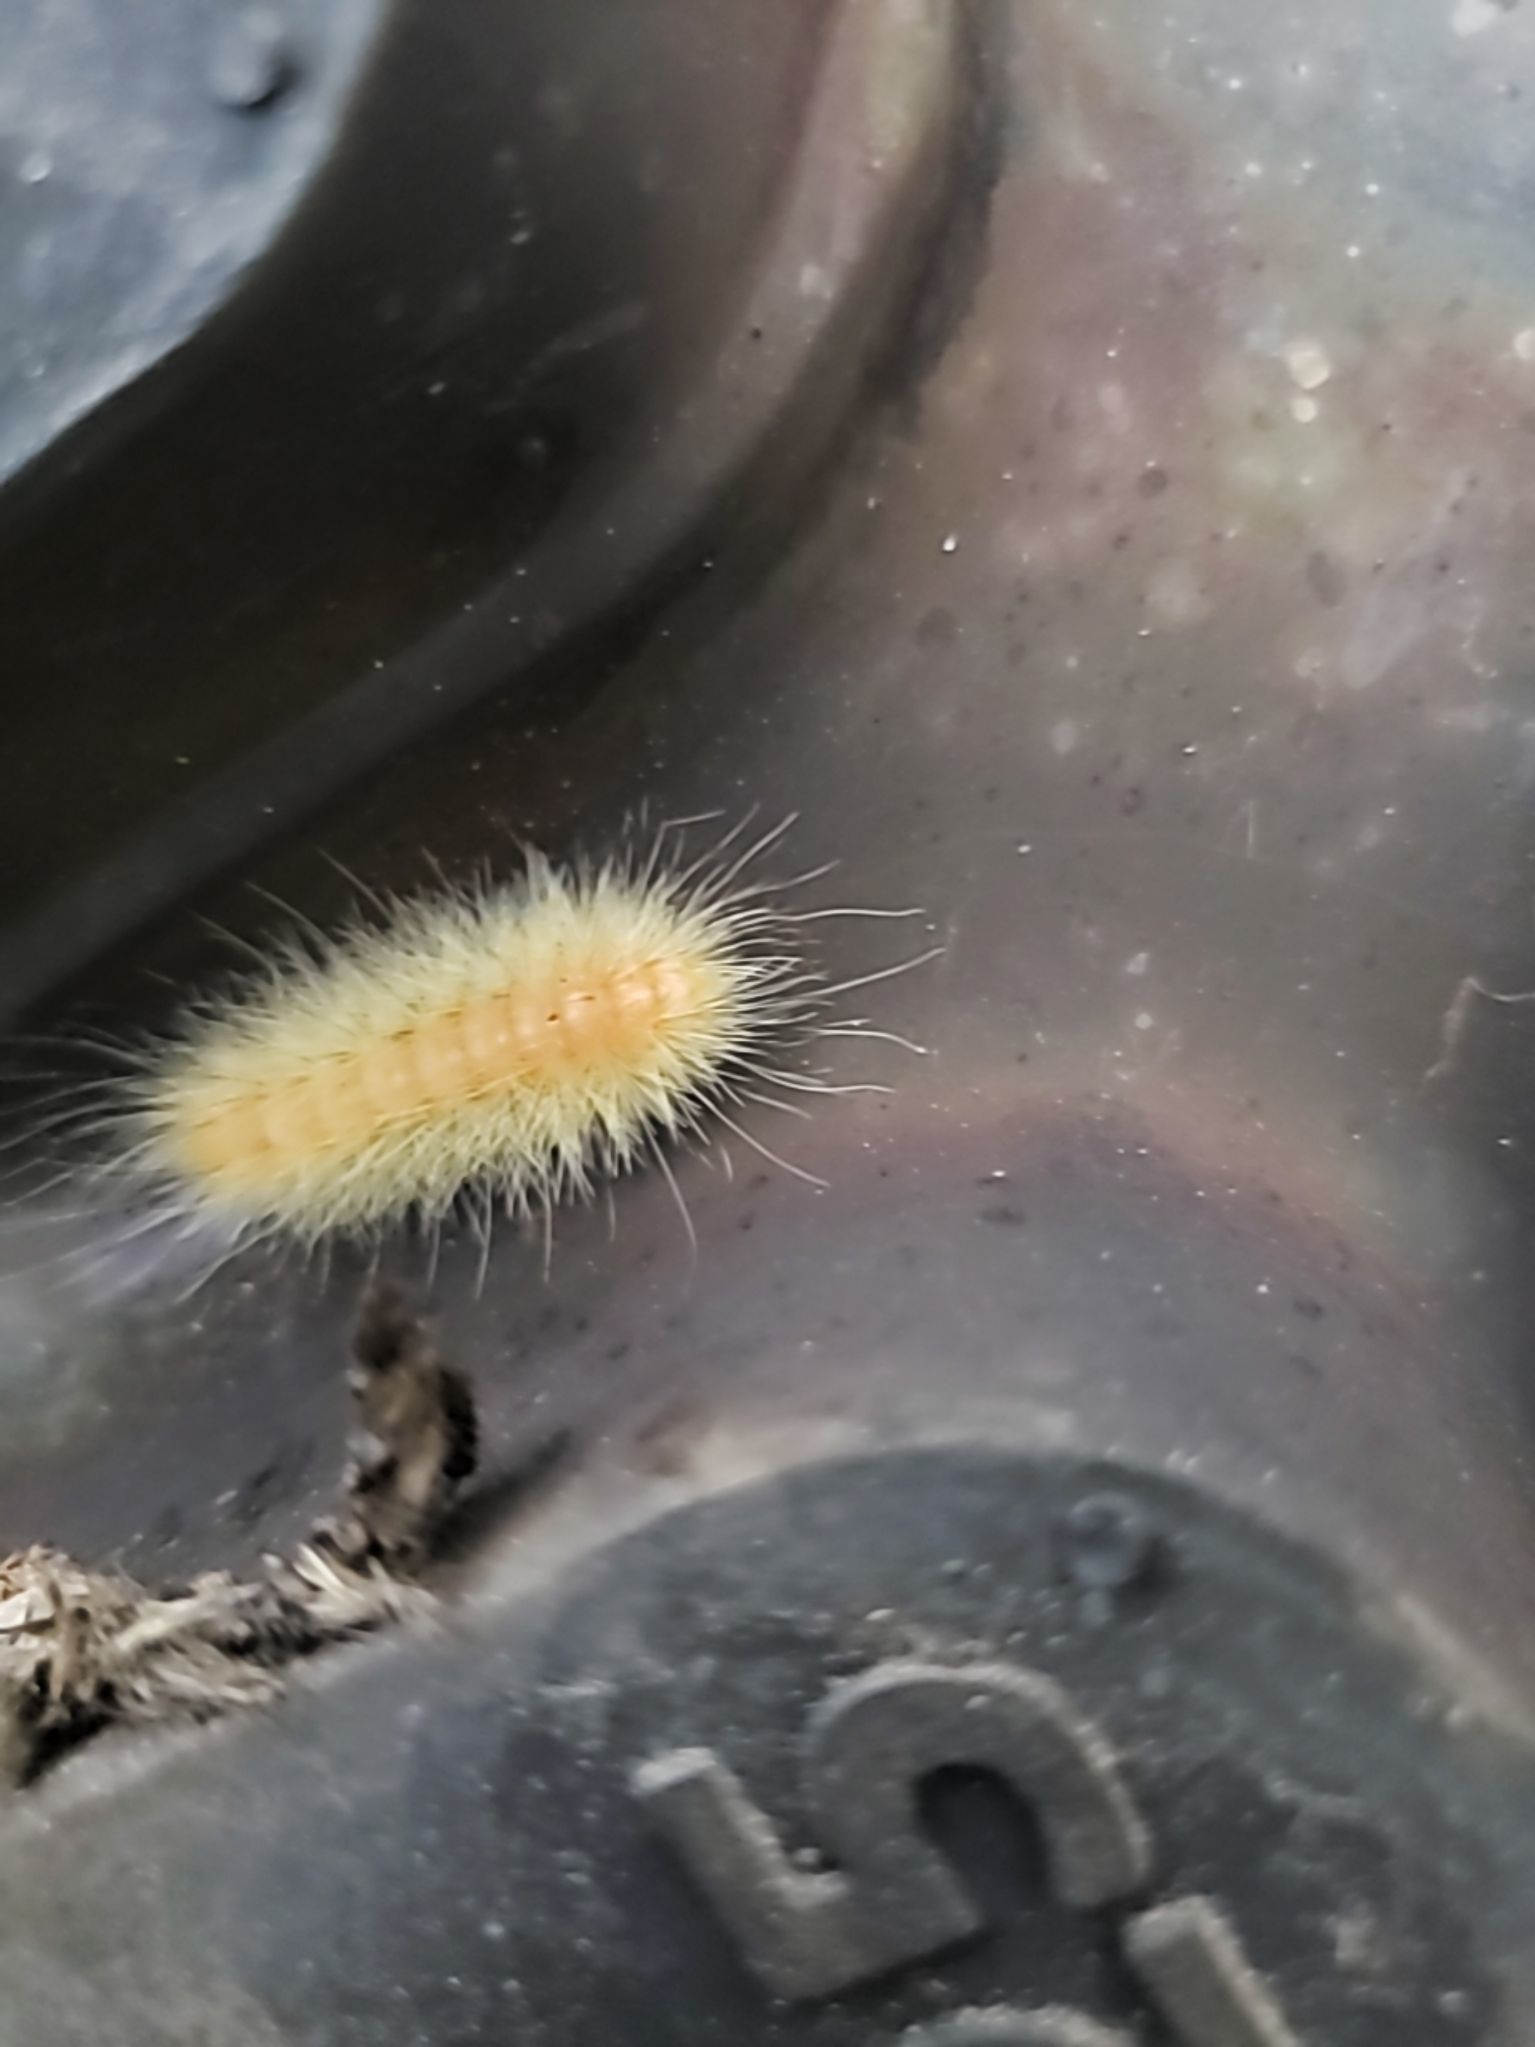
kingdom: Animalia
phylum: Arthropoda
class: Insecta
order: Lepidoptera
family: Erebidae
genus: Spilosoma
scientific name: Spilosoma virginica
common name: Virginia tiger moth
